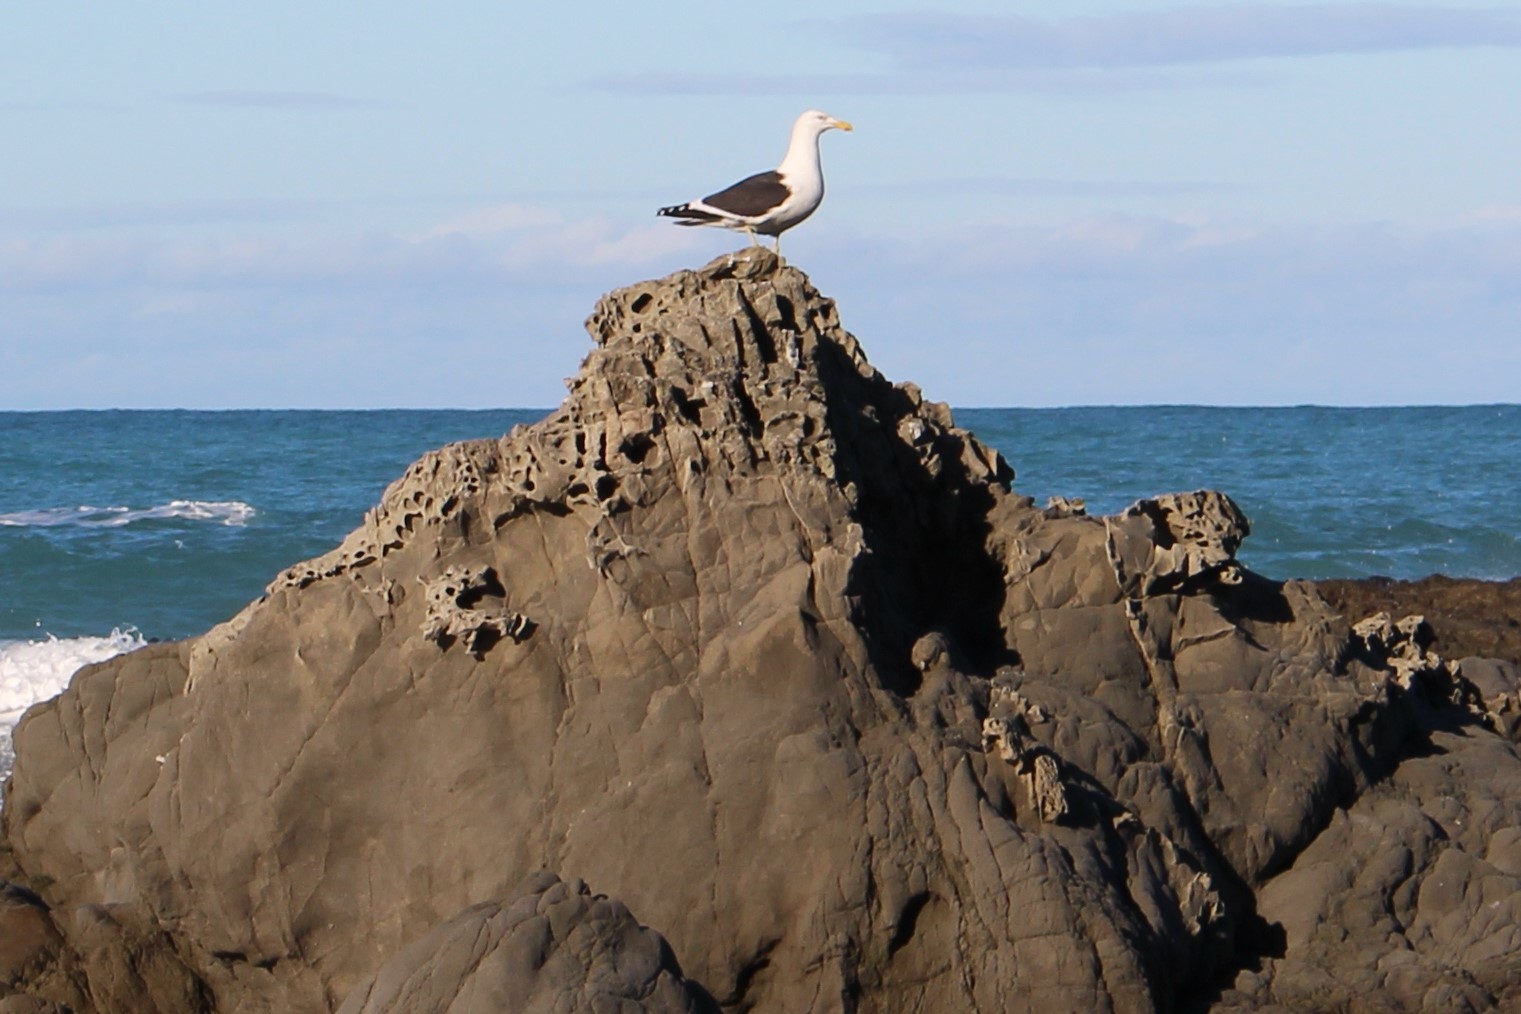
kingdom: Animalia
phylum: Chordata
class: Aves
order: Charadriiformes
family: Laridae
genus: Larus
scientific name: Larus dominicanus
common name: Kelp gull
